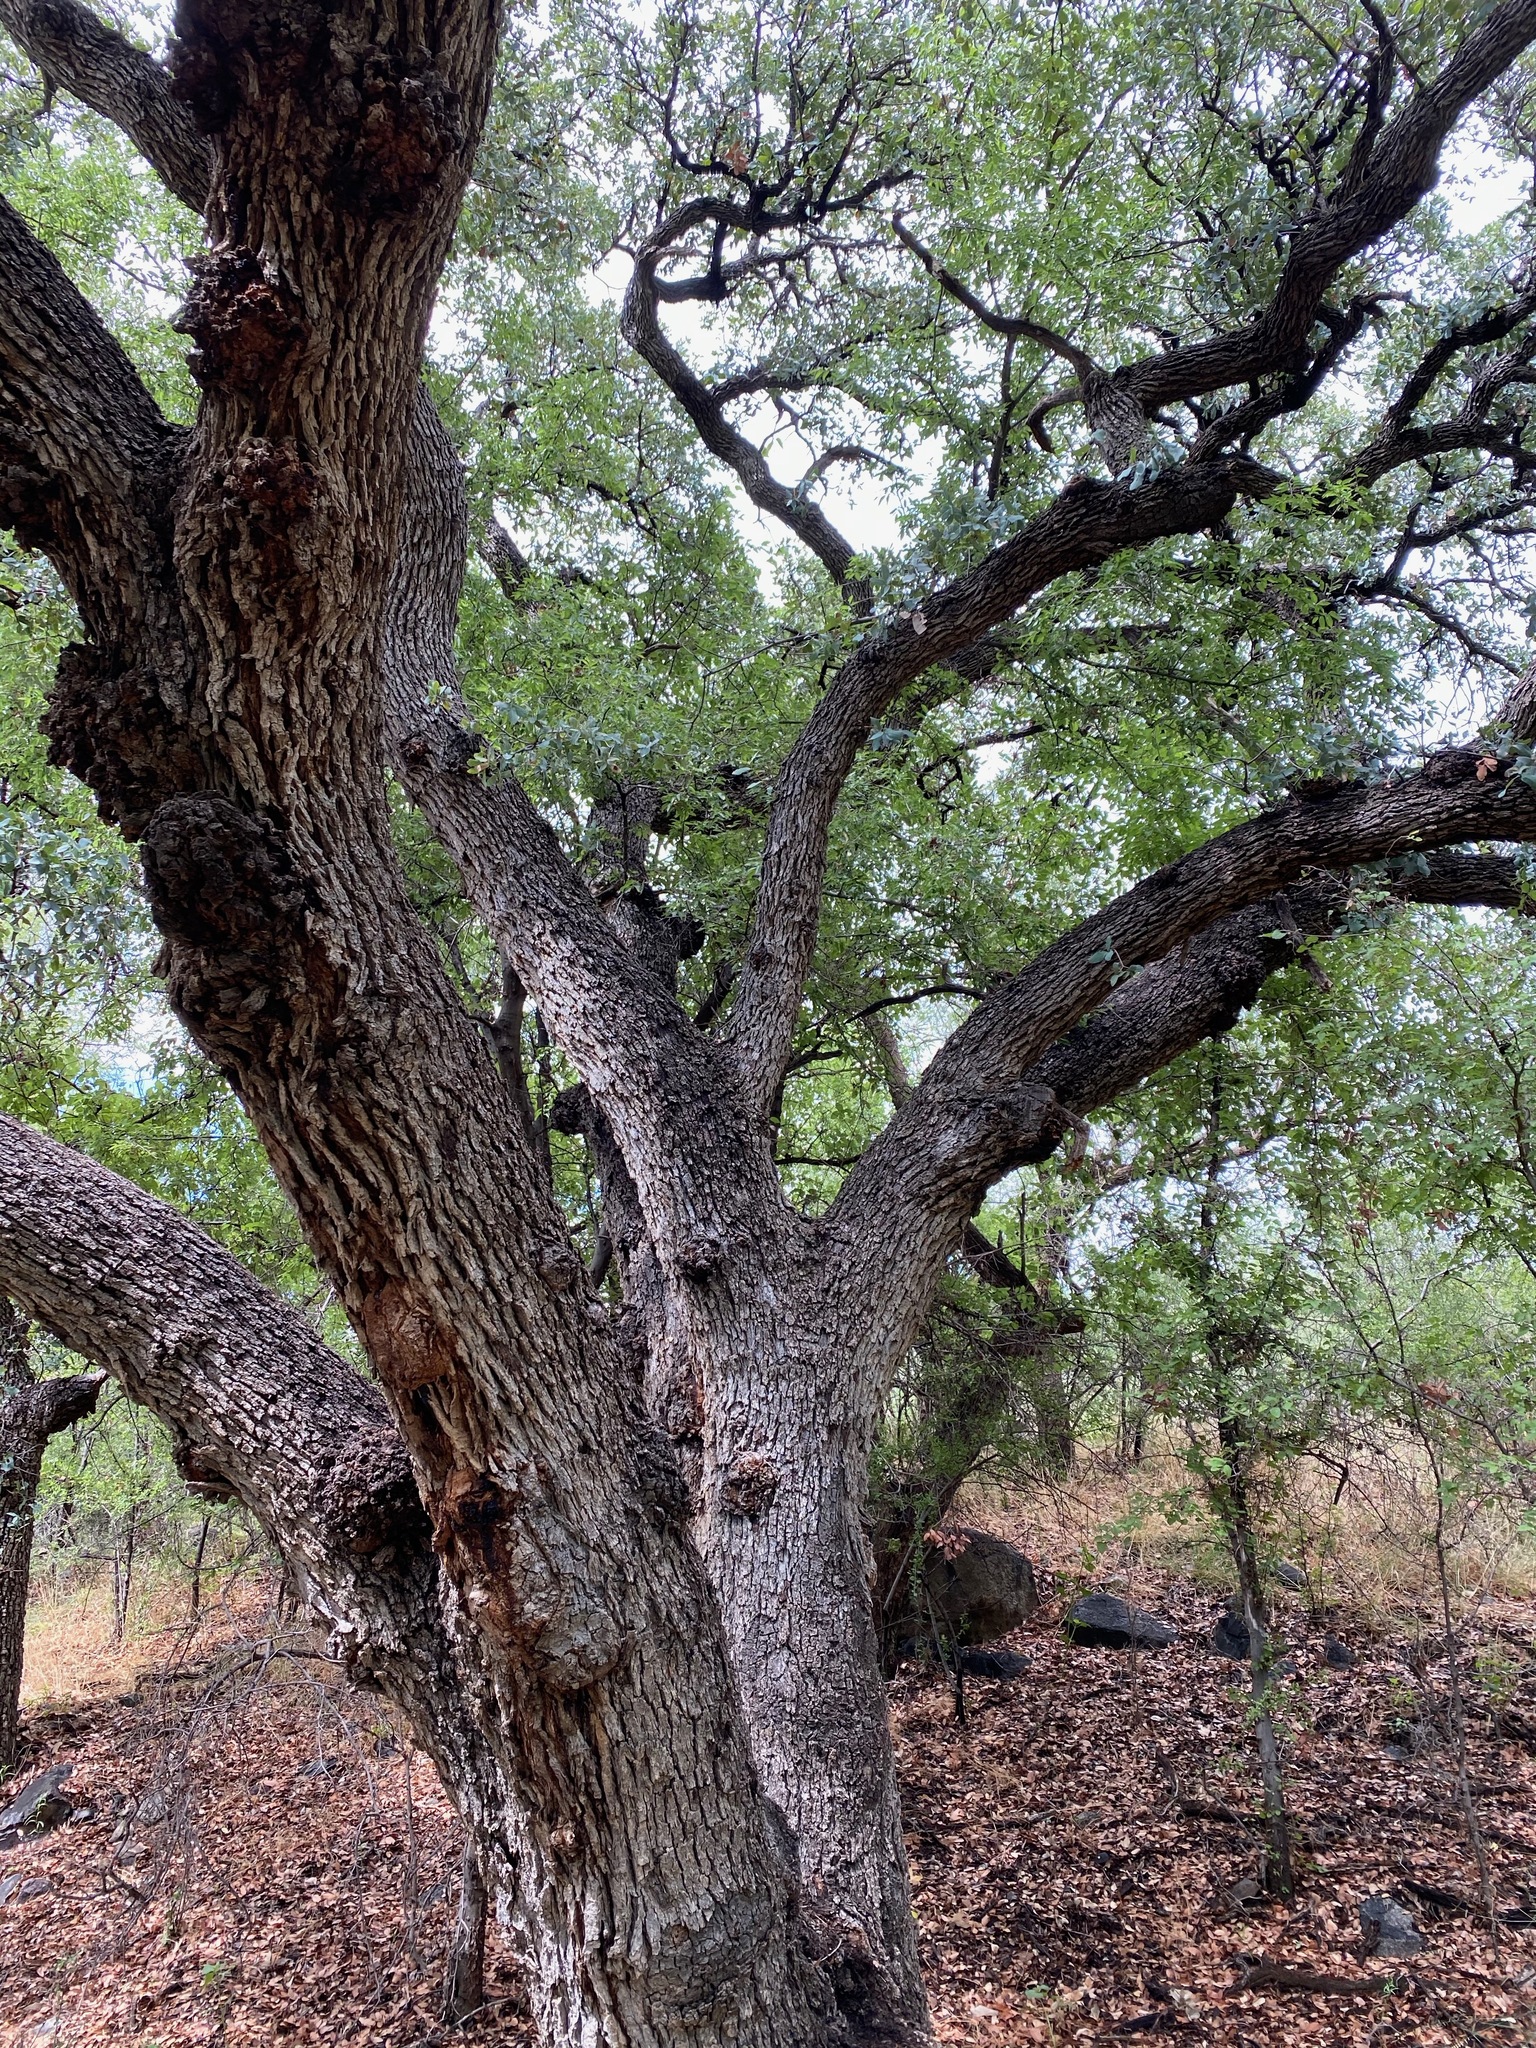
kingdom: Plantae
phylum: Tracheophyta
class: Magnoliopsida
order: Fagales
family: Fagaceae
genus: Quercus
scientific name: Quercus oblongifolia
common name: Mexican blue oak
